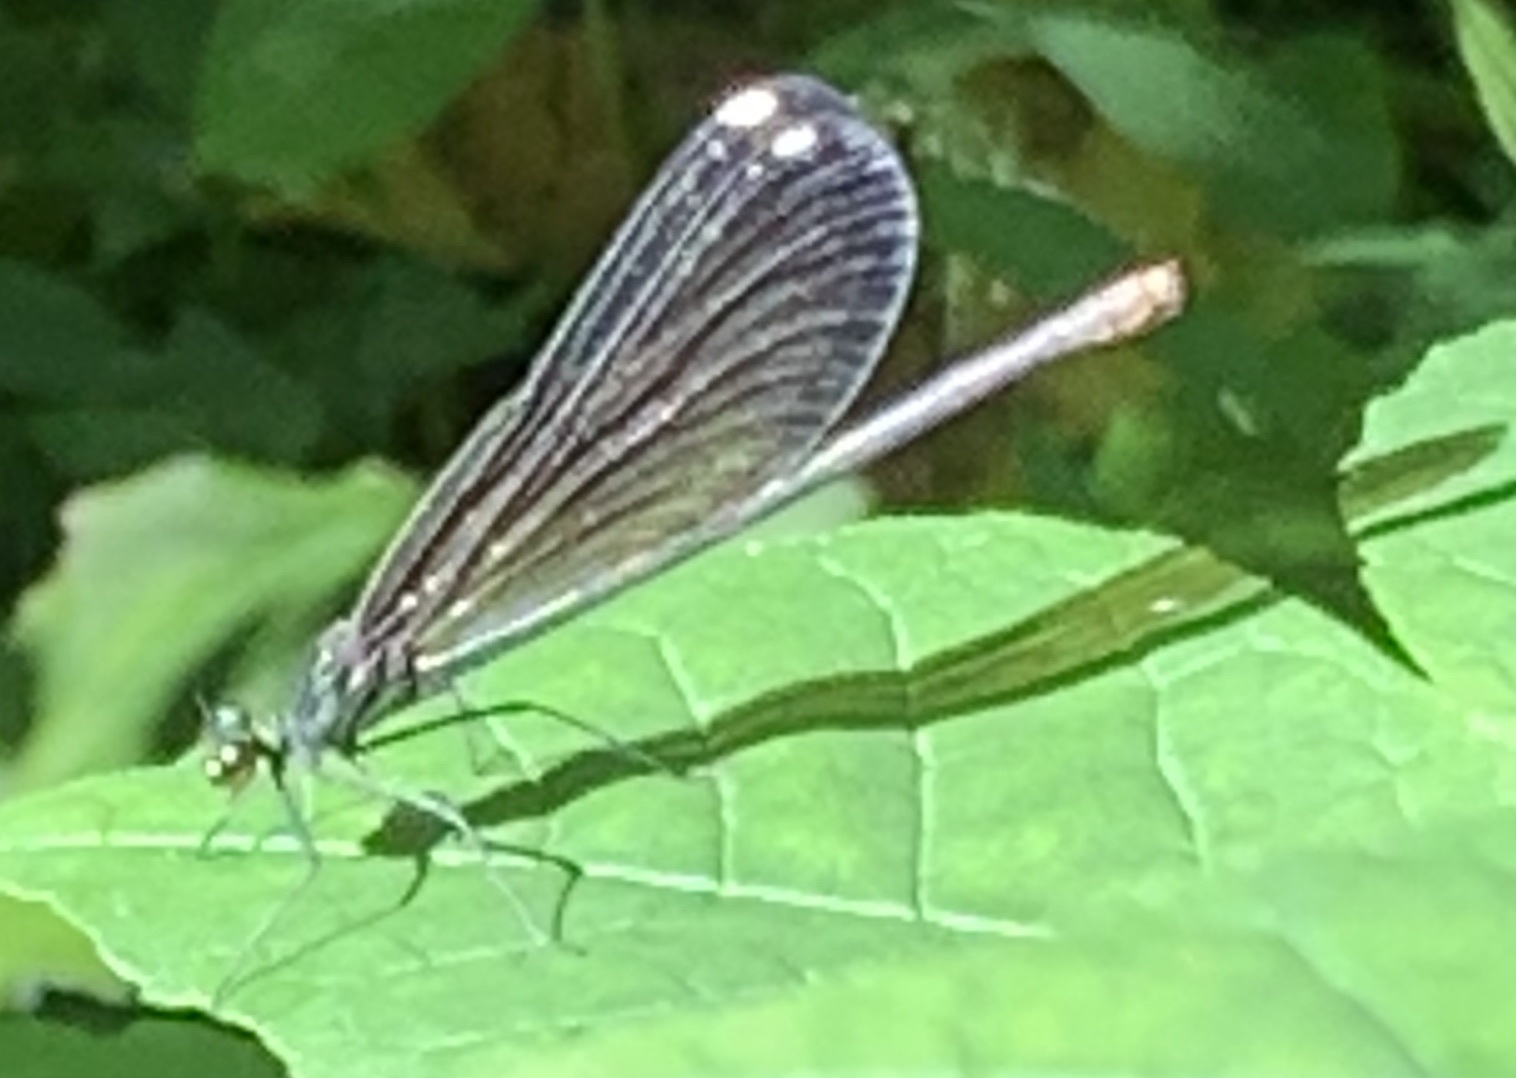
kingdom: Animalia
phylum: Arthropoda
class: Insecta
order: Odonata
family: Calopterygidae
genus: Calopteryx
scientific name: Calopteryx maculata
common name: Ebony jewelwing
